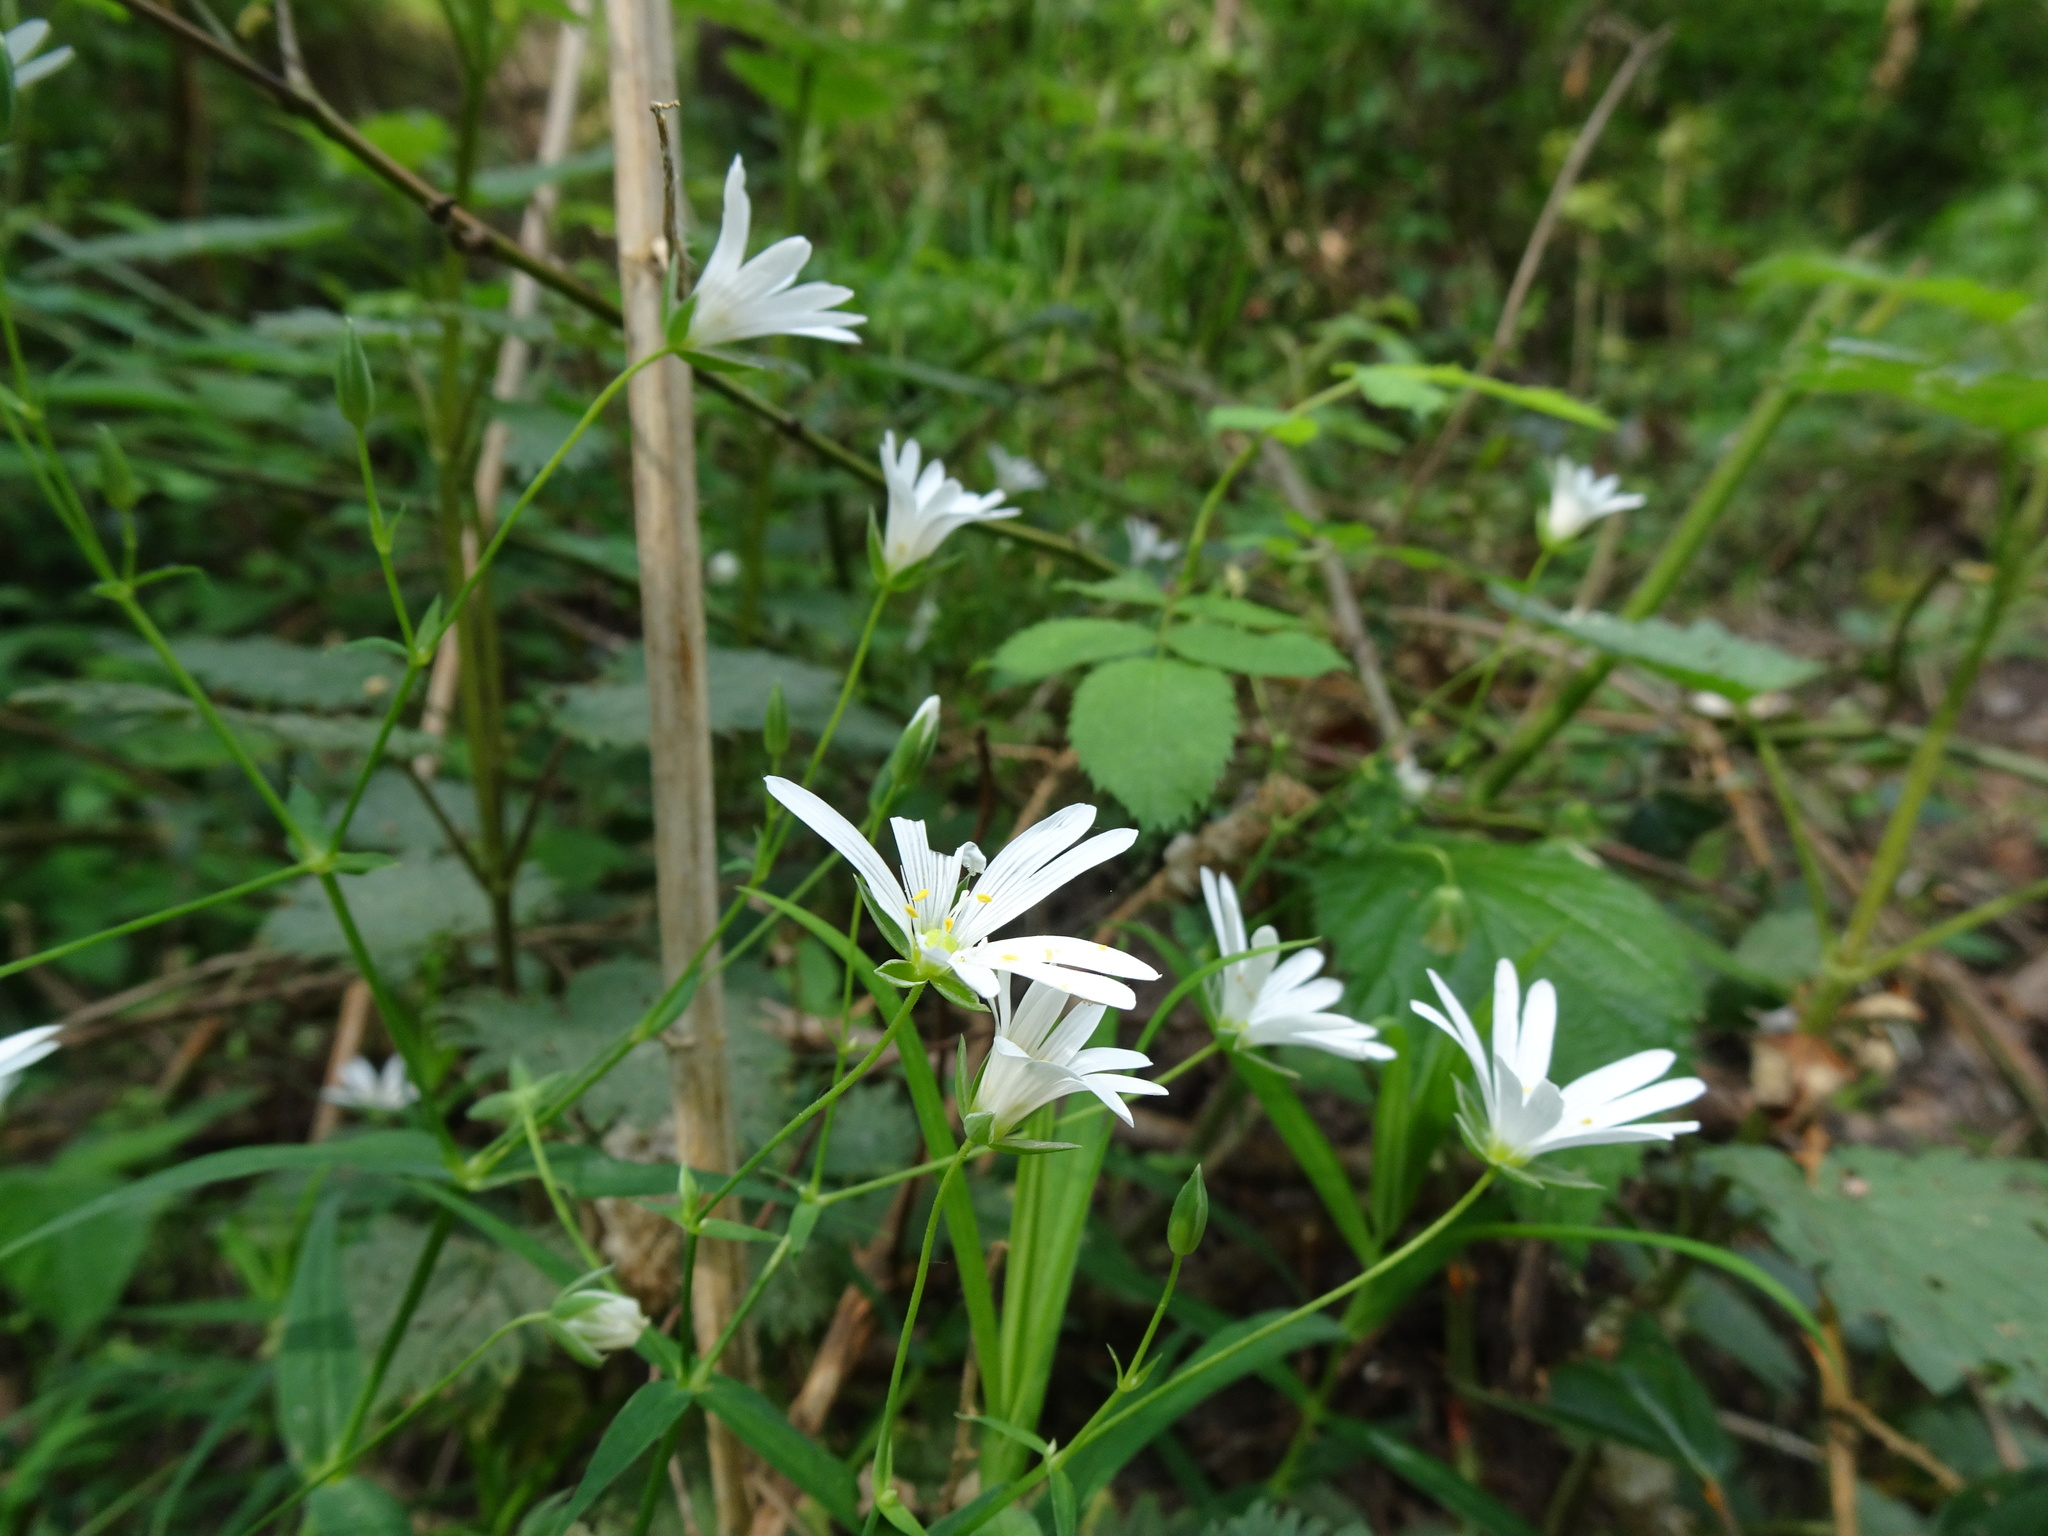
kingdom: Plantae
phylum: Tracheophyta
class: Magnoliopsida
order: Caryophyllales
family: Caryophyllaceae
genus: Rabelera
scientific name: Rabelera holostea
